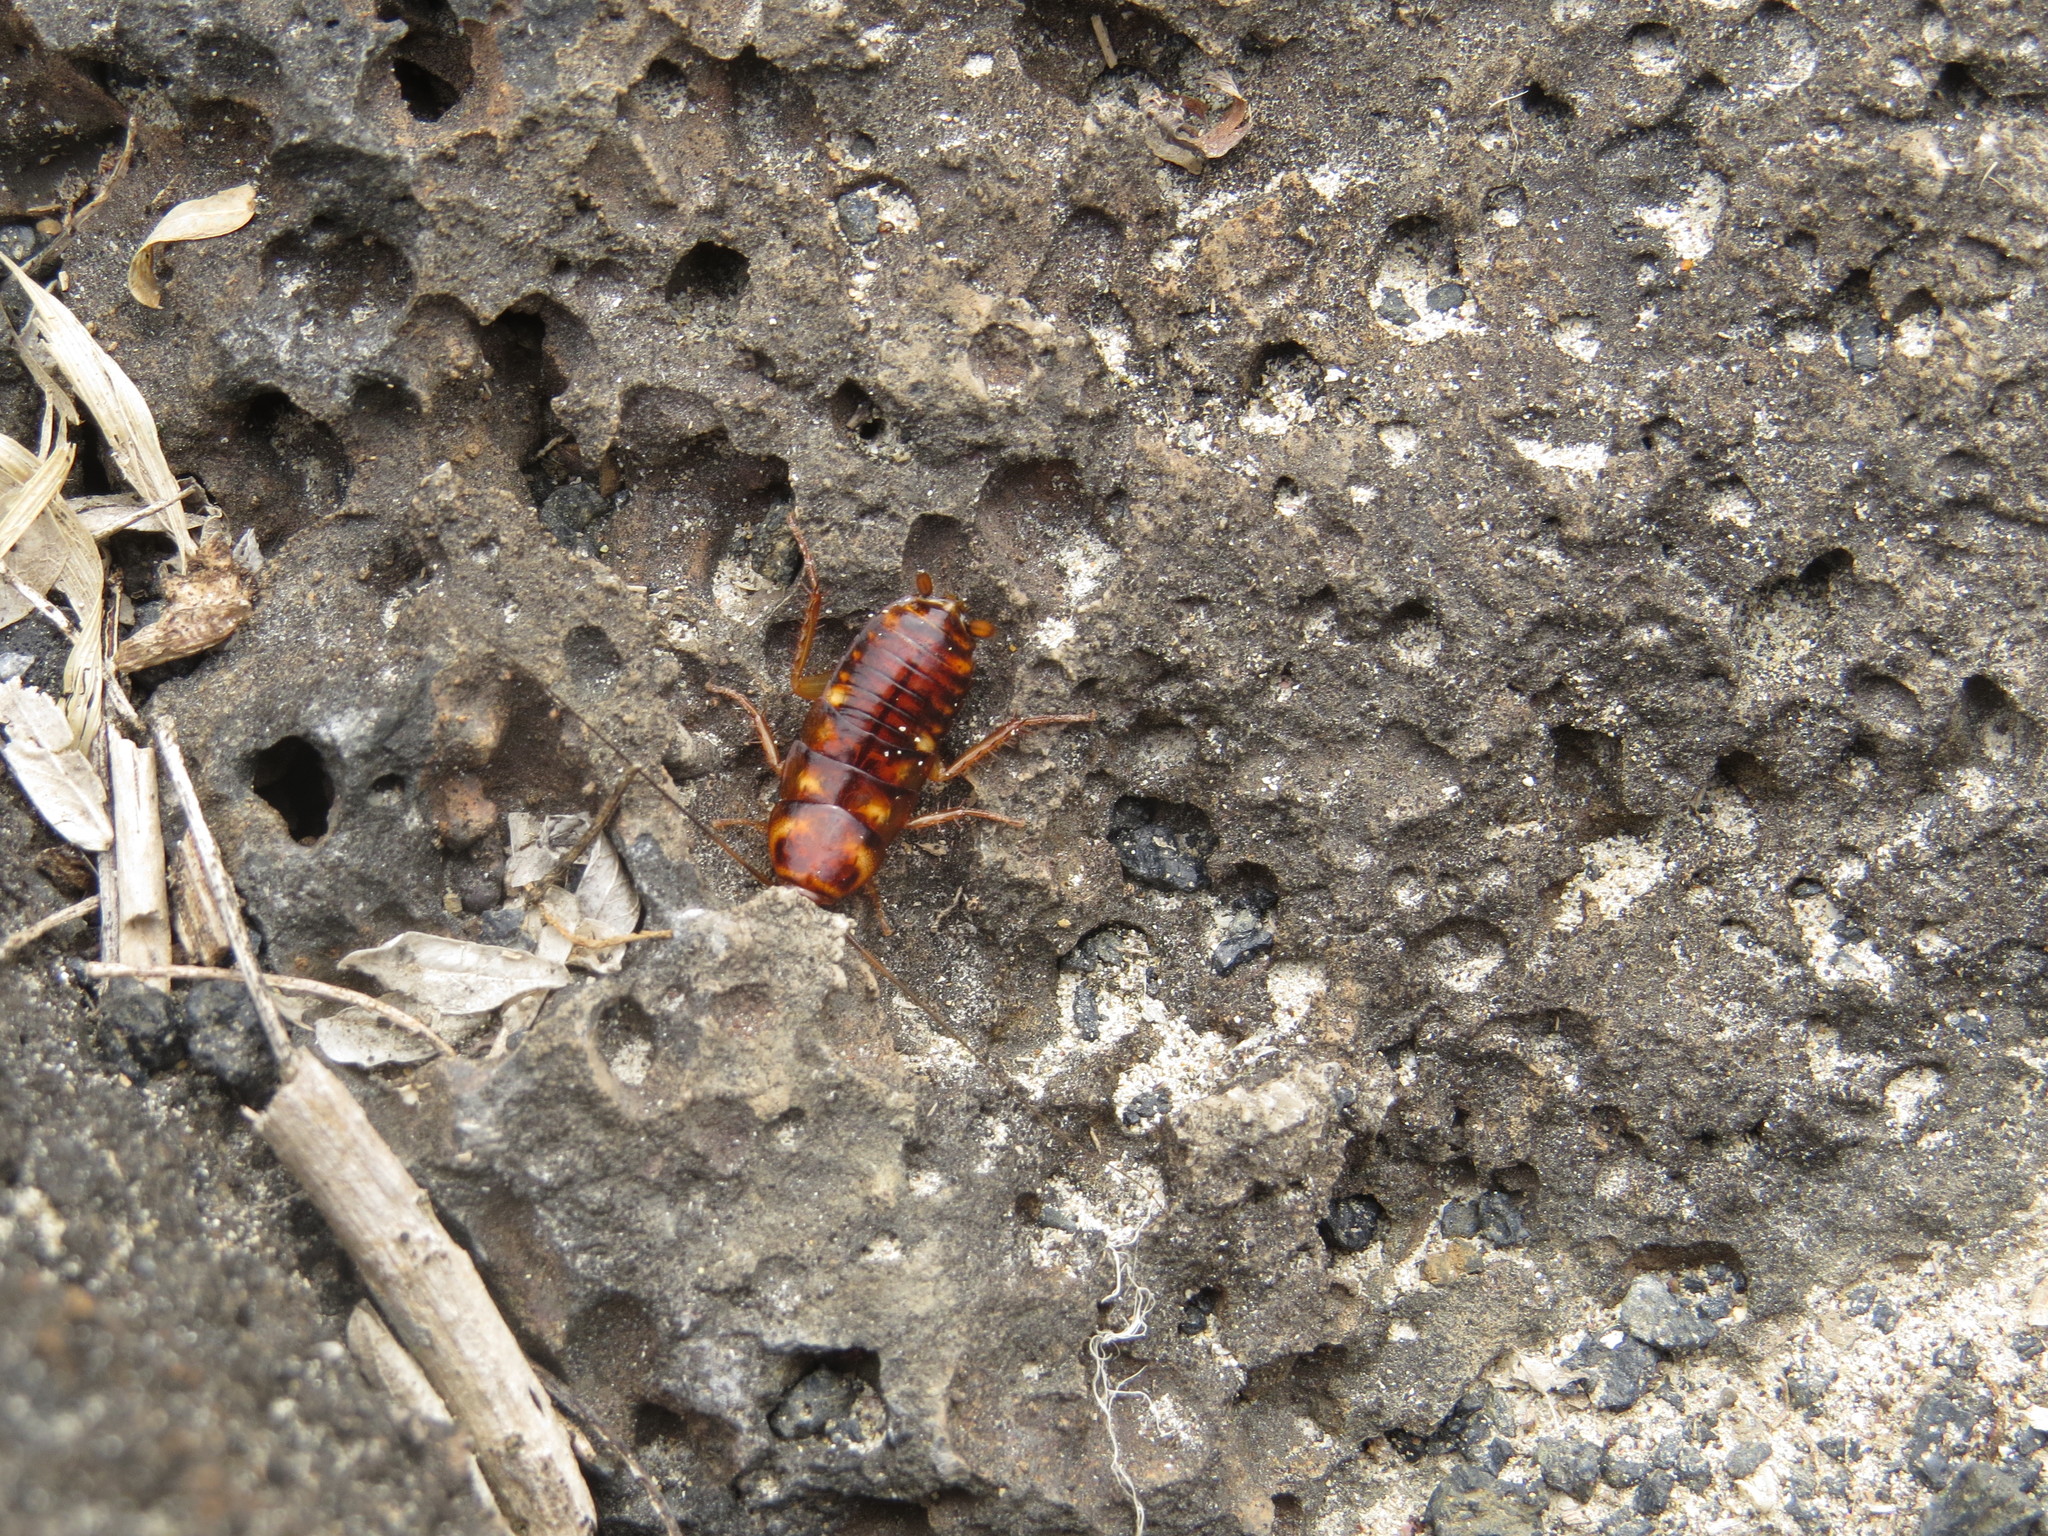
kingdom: Animalia
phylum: Arthropoda
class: Insecta
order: Blattodea
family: Blattidae
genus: Periplaneta
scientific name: Periplaneta australasiae
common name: Australian cockroach
